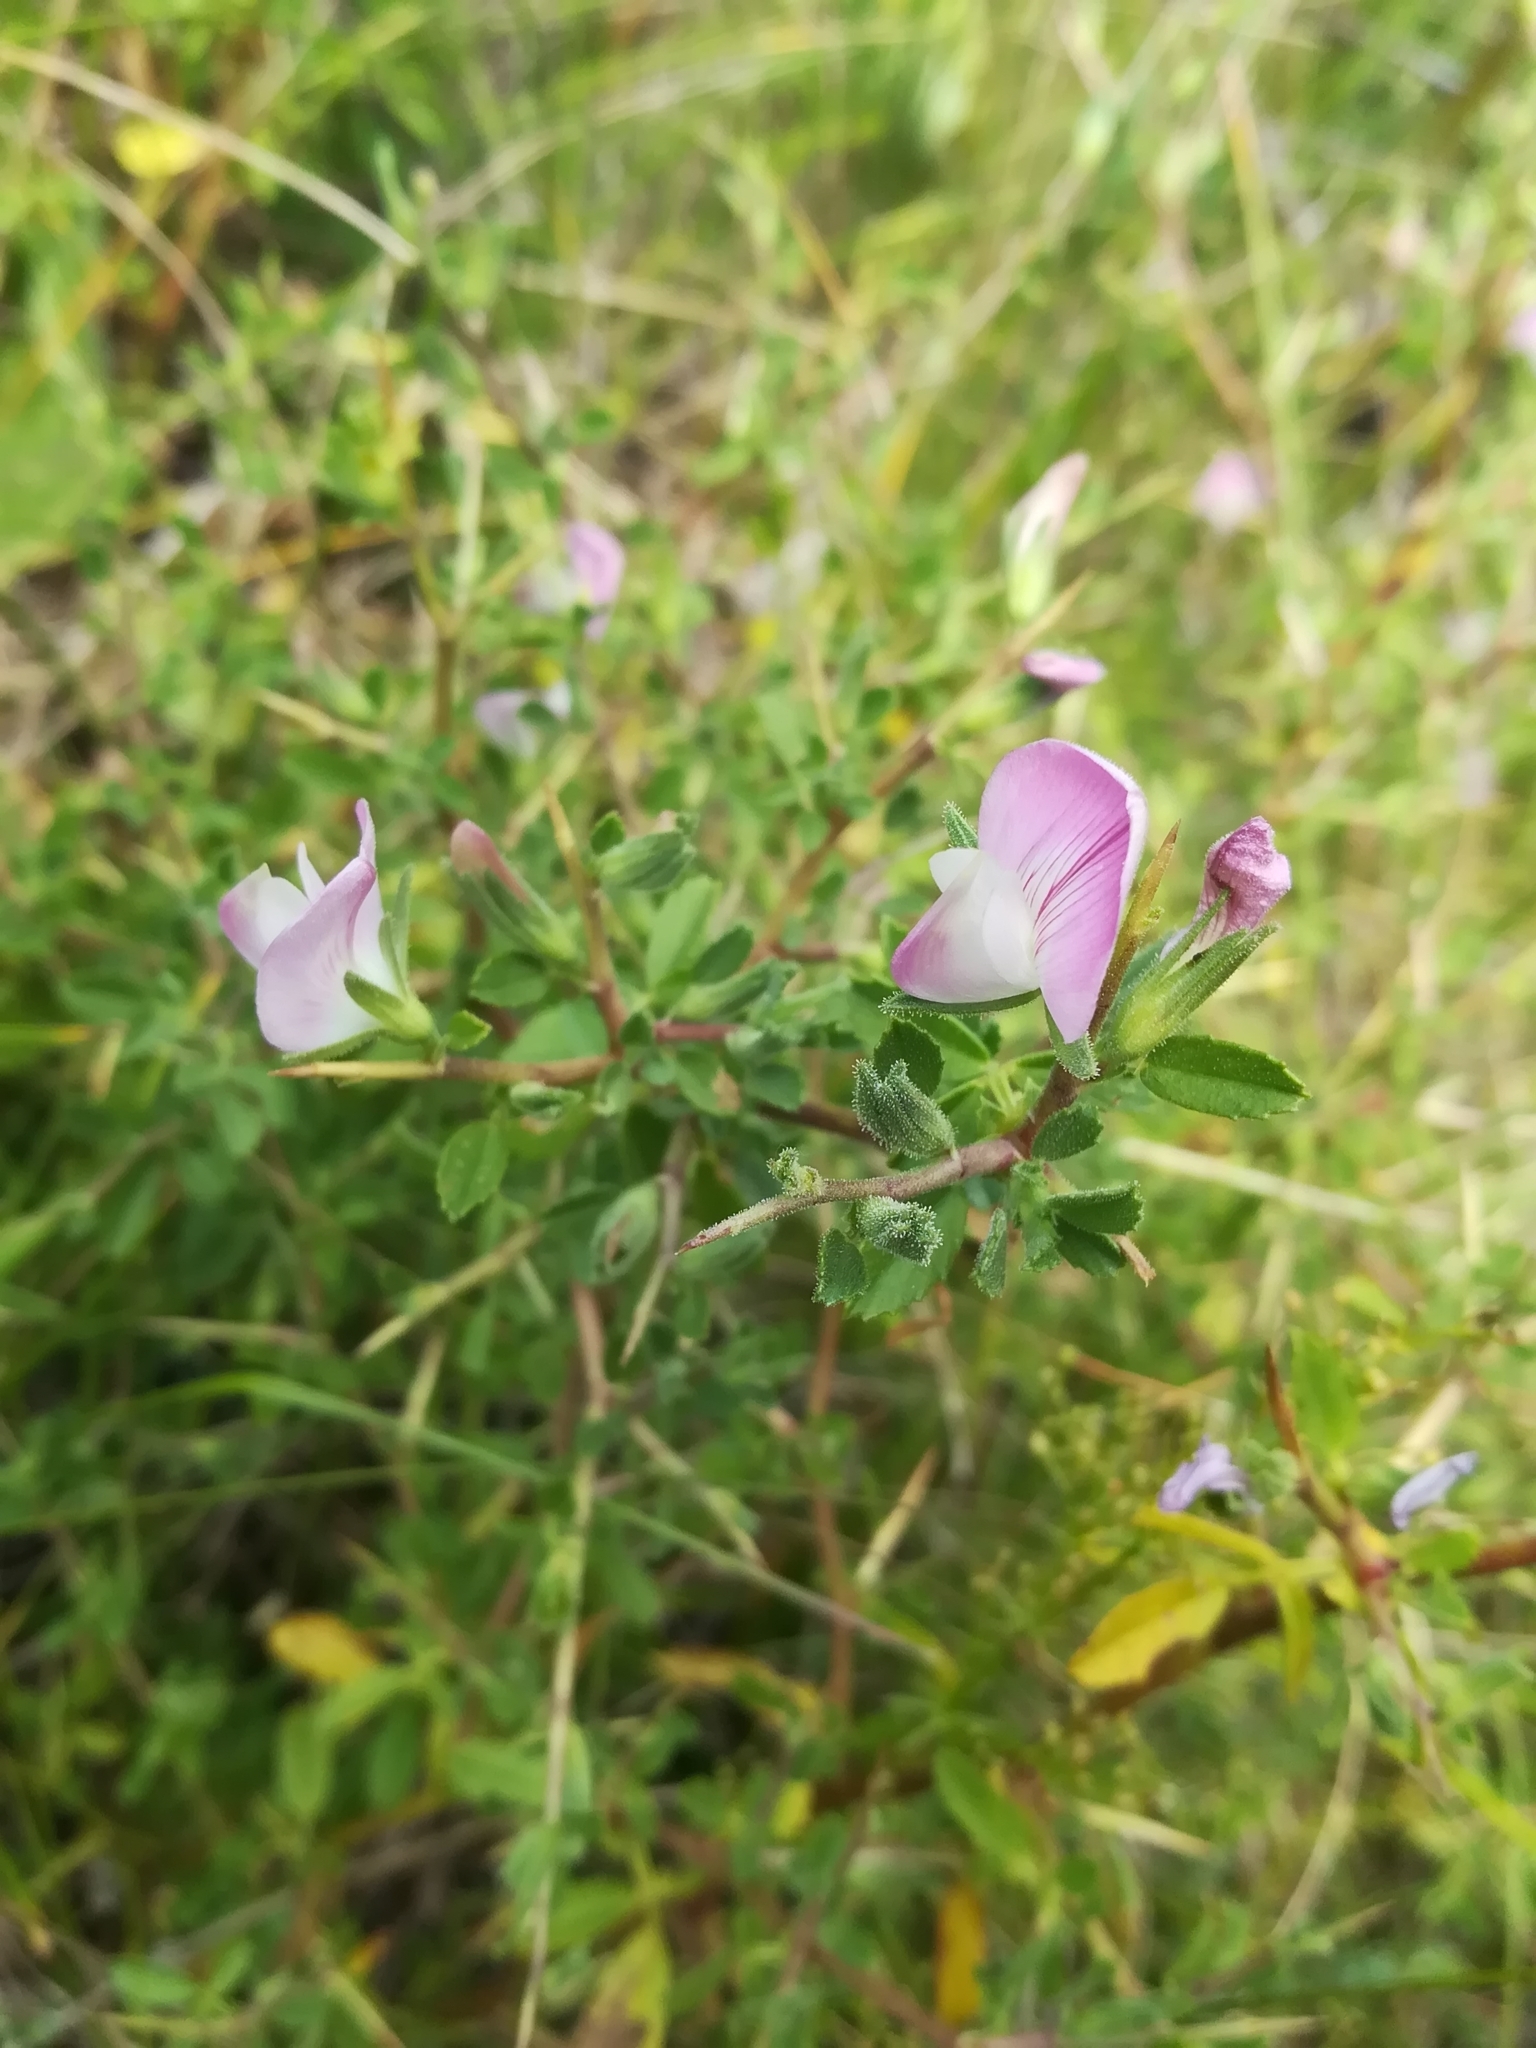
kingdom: Plantae
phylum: Tracheophyta
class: Magnoliopsida
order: Fabales
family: Fabaceae
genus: Ononis
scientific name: Ononis spinosa
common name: Spiny restharrow
